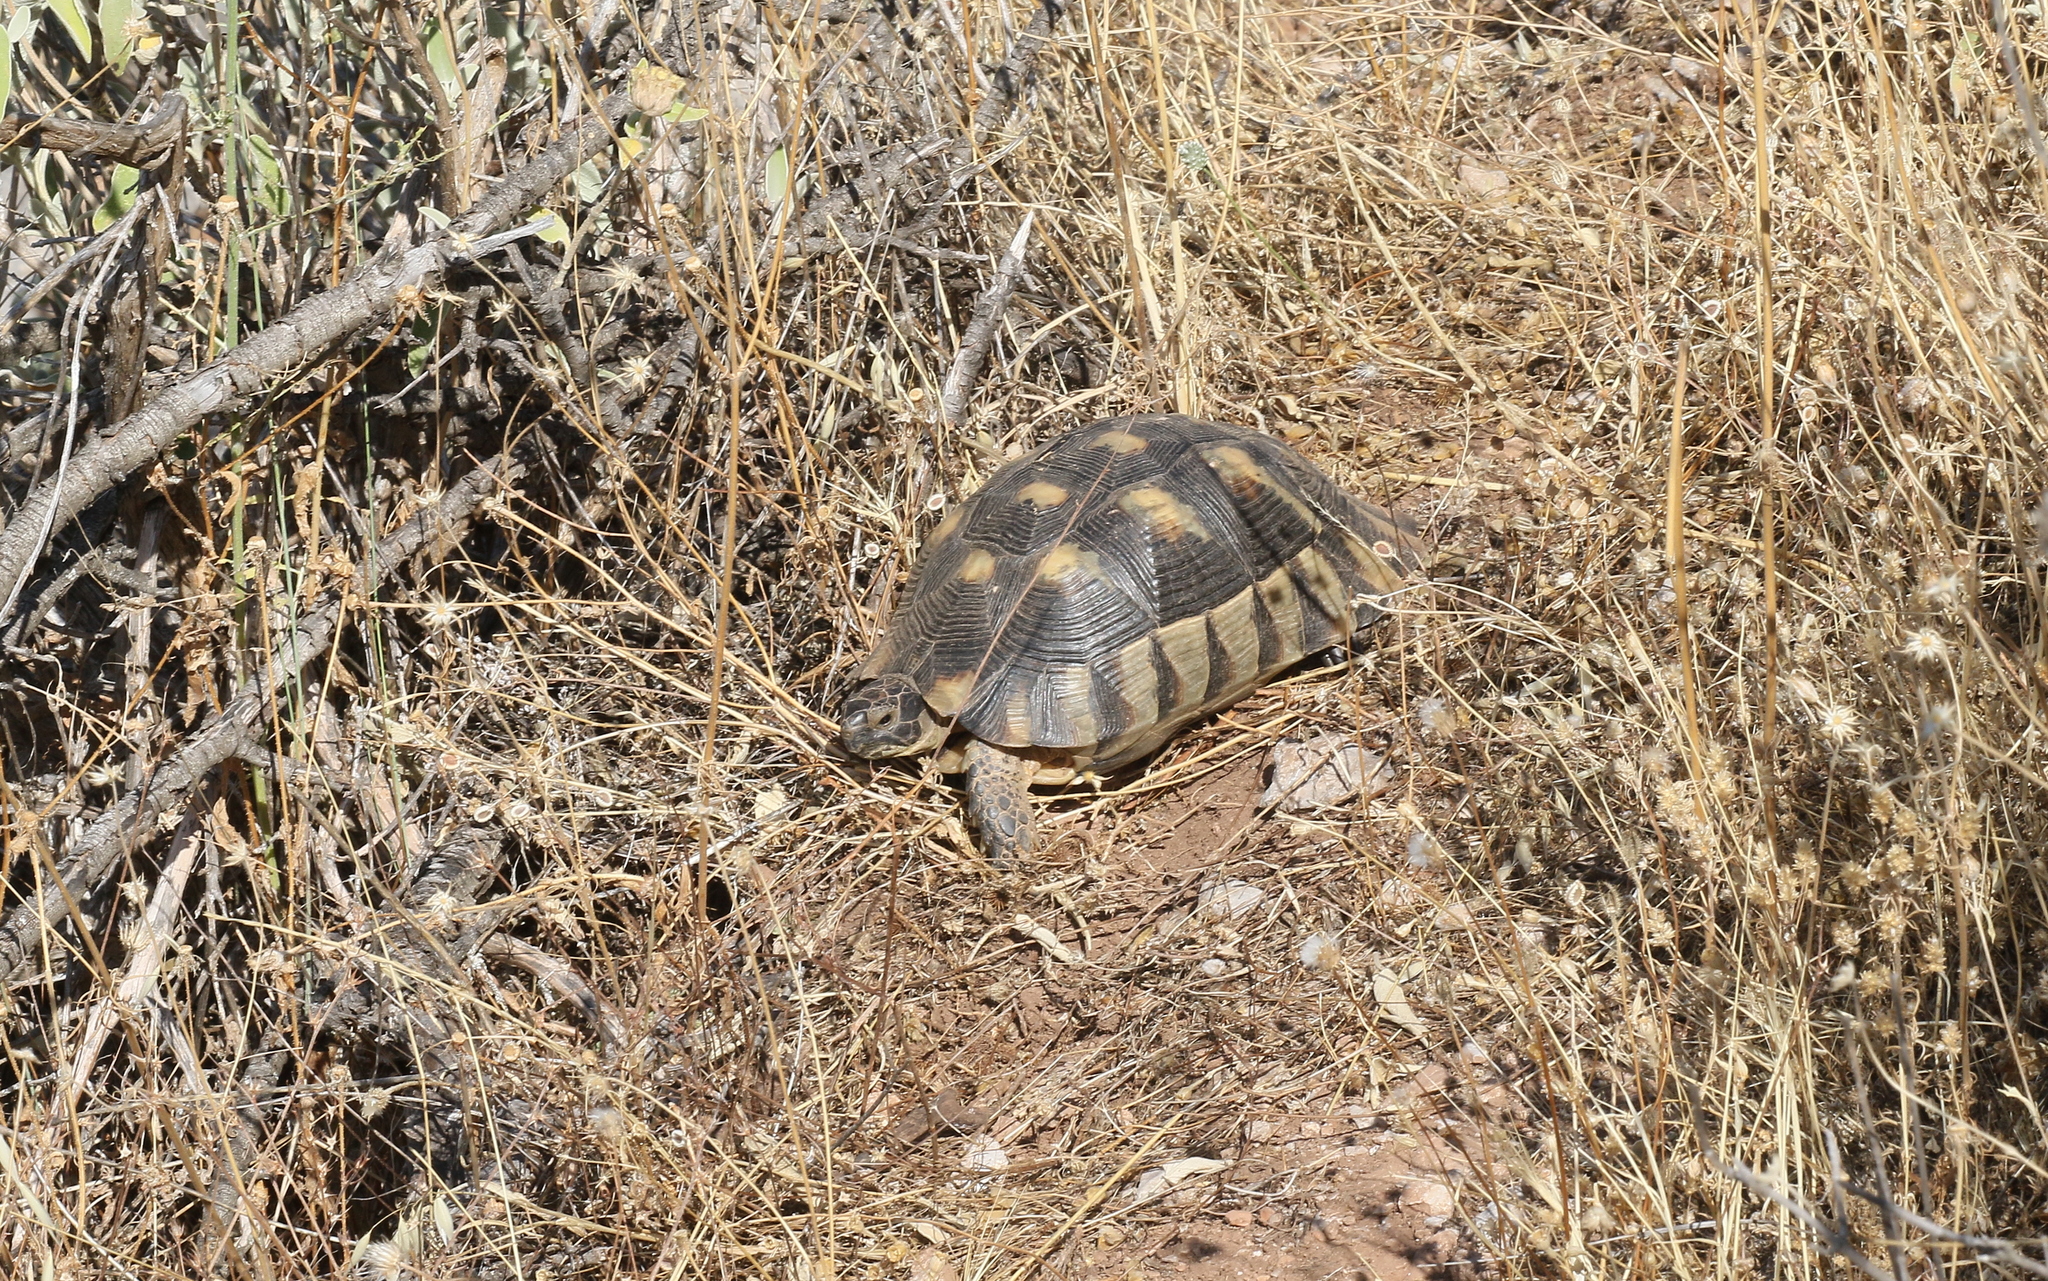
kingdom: Animalia
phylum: Chordata
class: Testudines
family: Testudinidae
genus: Testudo
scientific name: Testudo marginata
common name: Marginated tortoise
